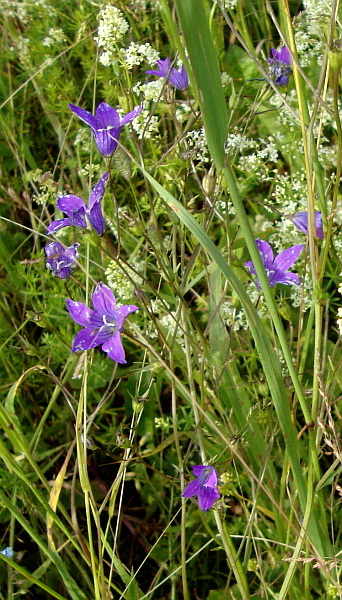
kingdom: Plantae
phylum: Tracheophyta
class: Magnoliopsida
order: Asterales
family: Campanulaceae
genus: Campanula
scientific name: Campanula patula
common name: Spreading bellflower
